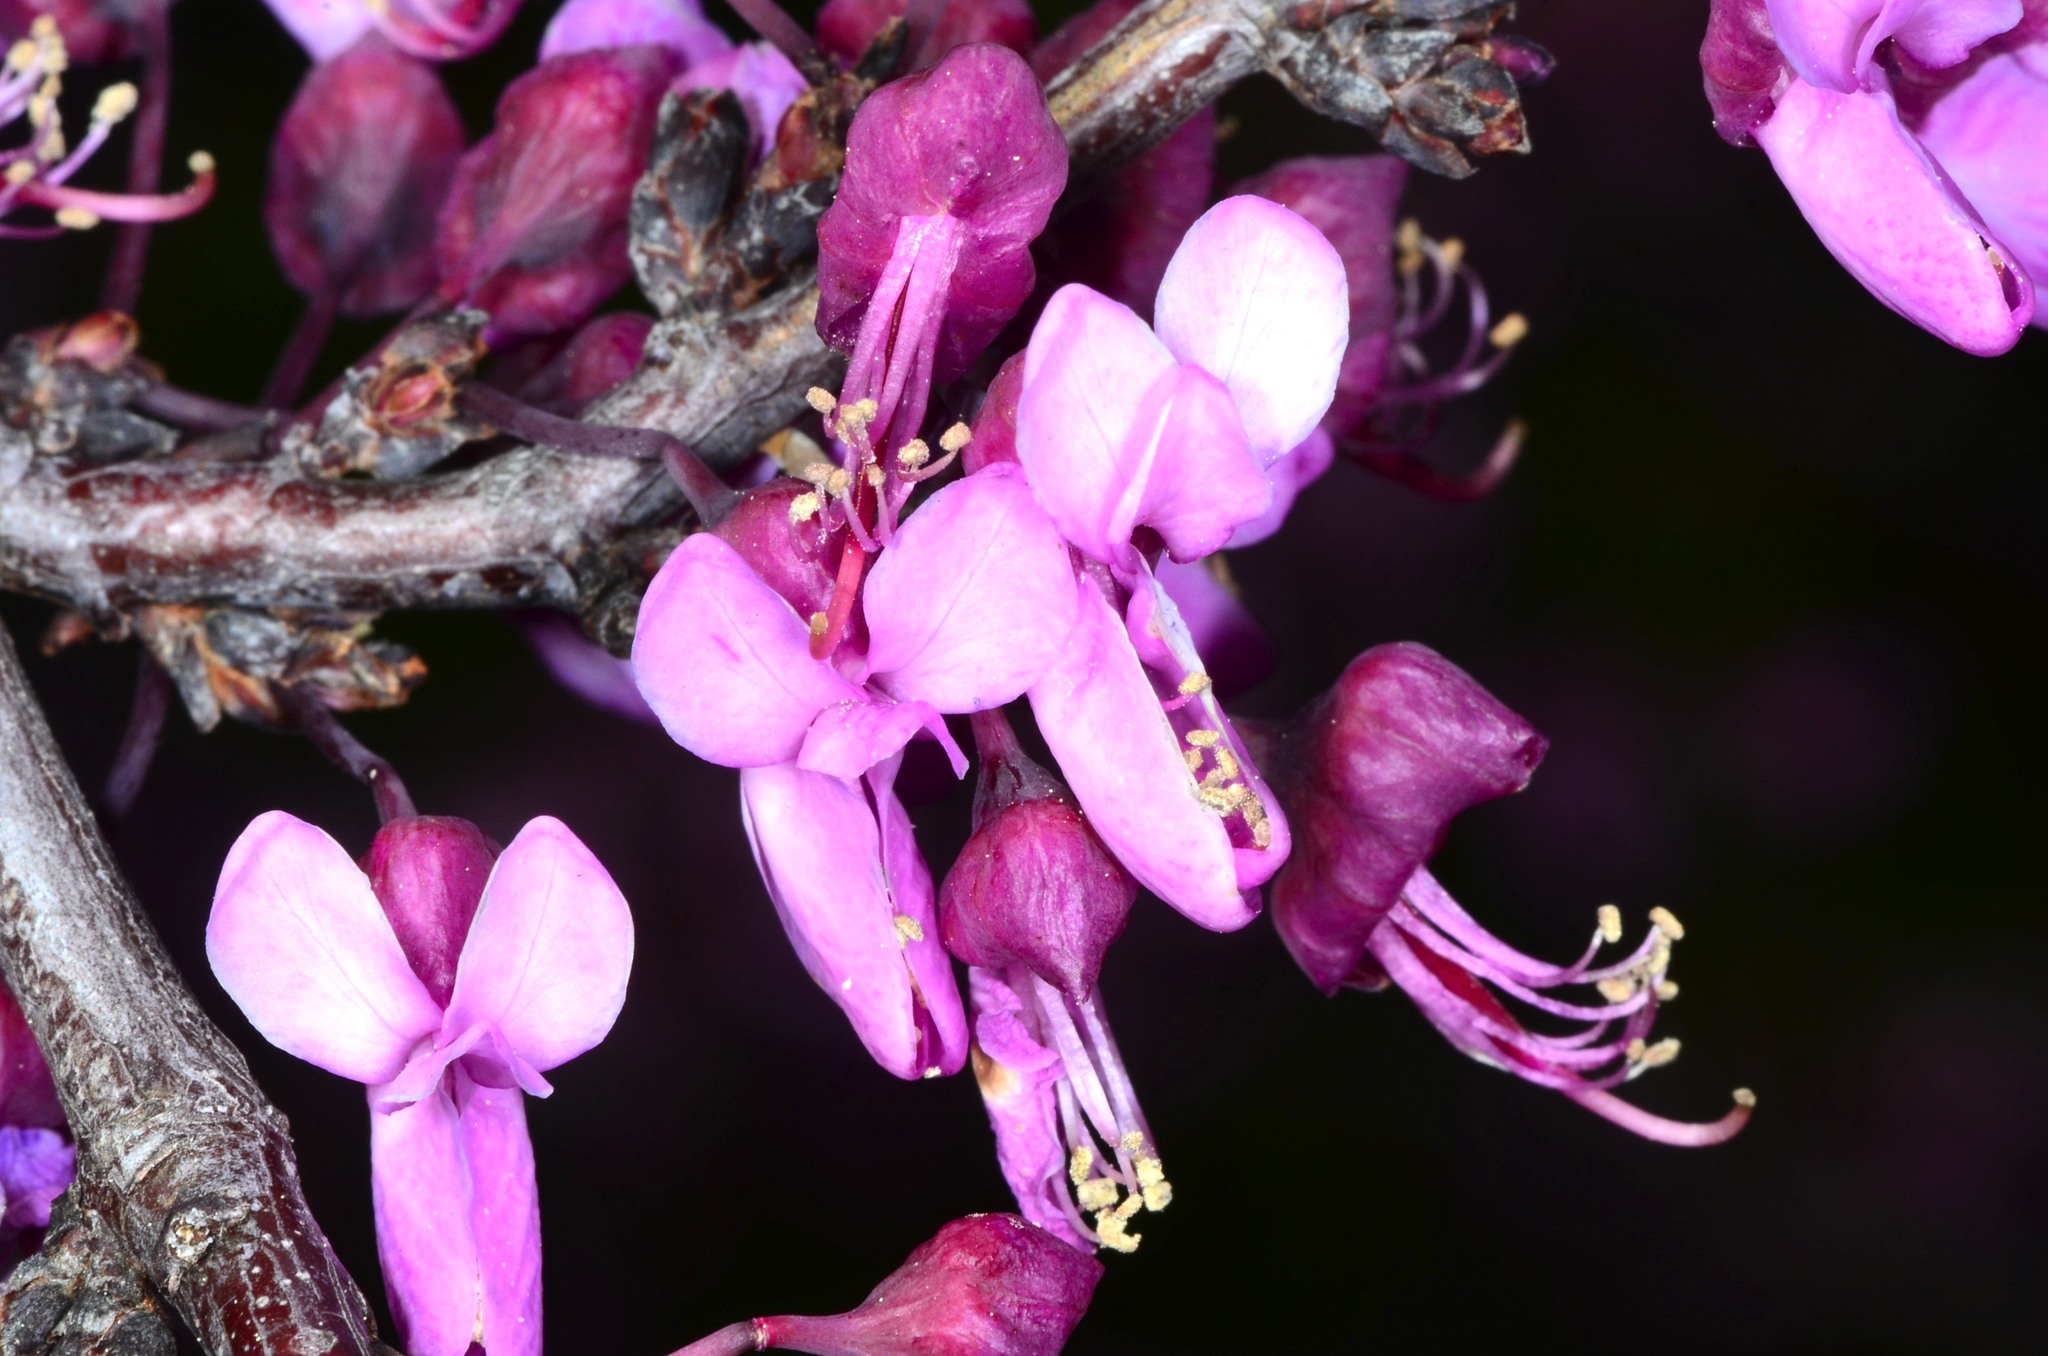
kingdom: Plantae
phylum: Tracheophyta
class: Magnoliopsida
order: Fabales
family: Fabaceae
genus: Cercis
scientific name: Cercis occidentalis
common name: California redbud
